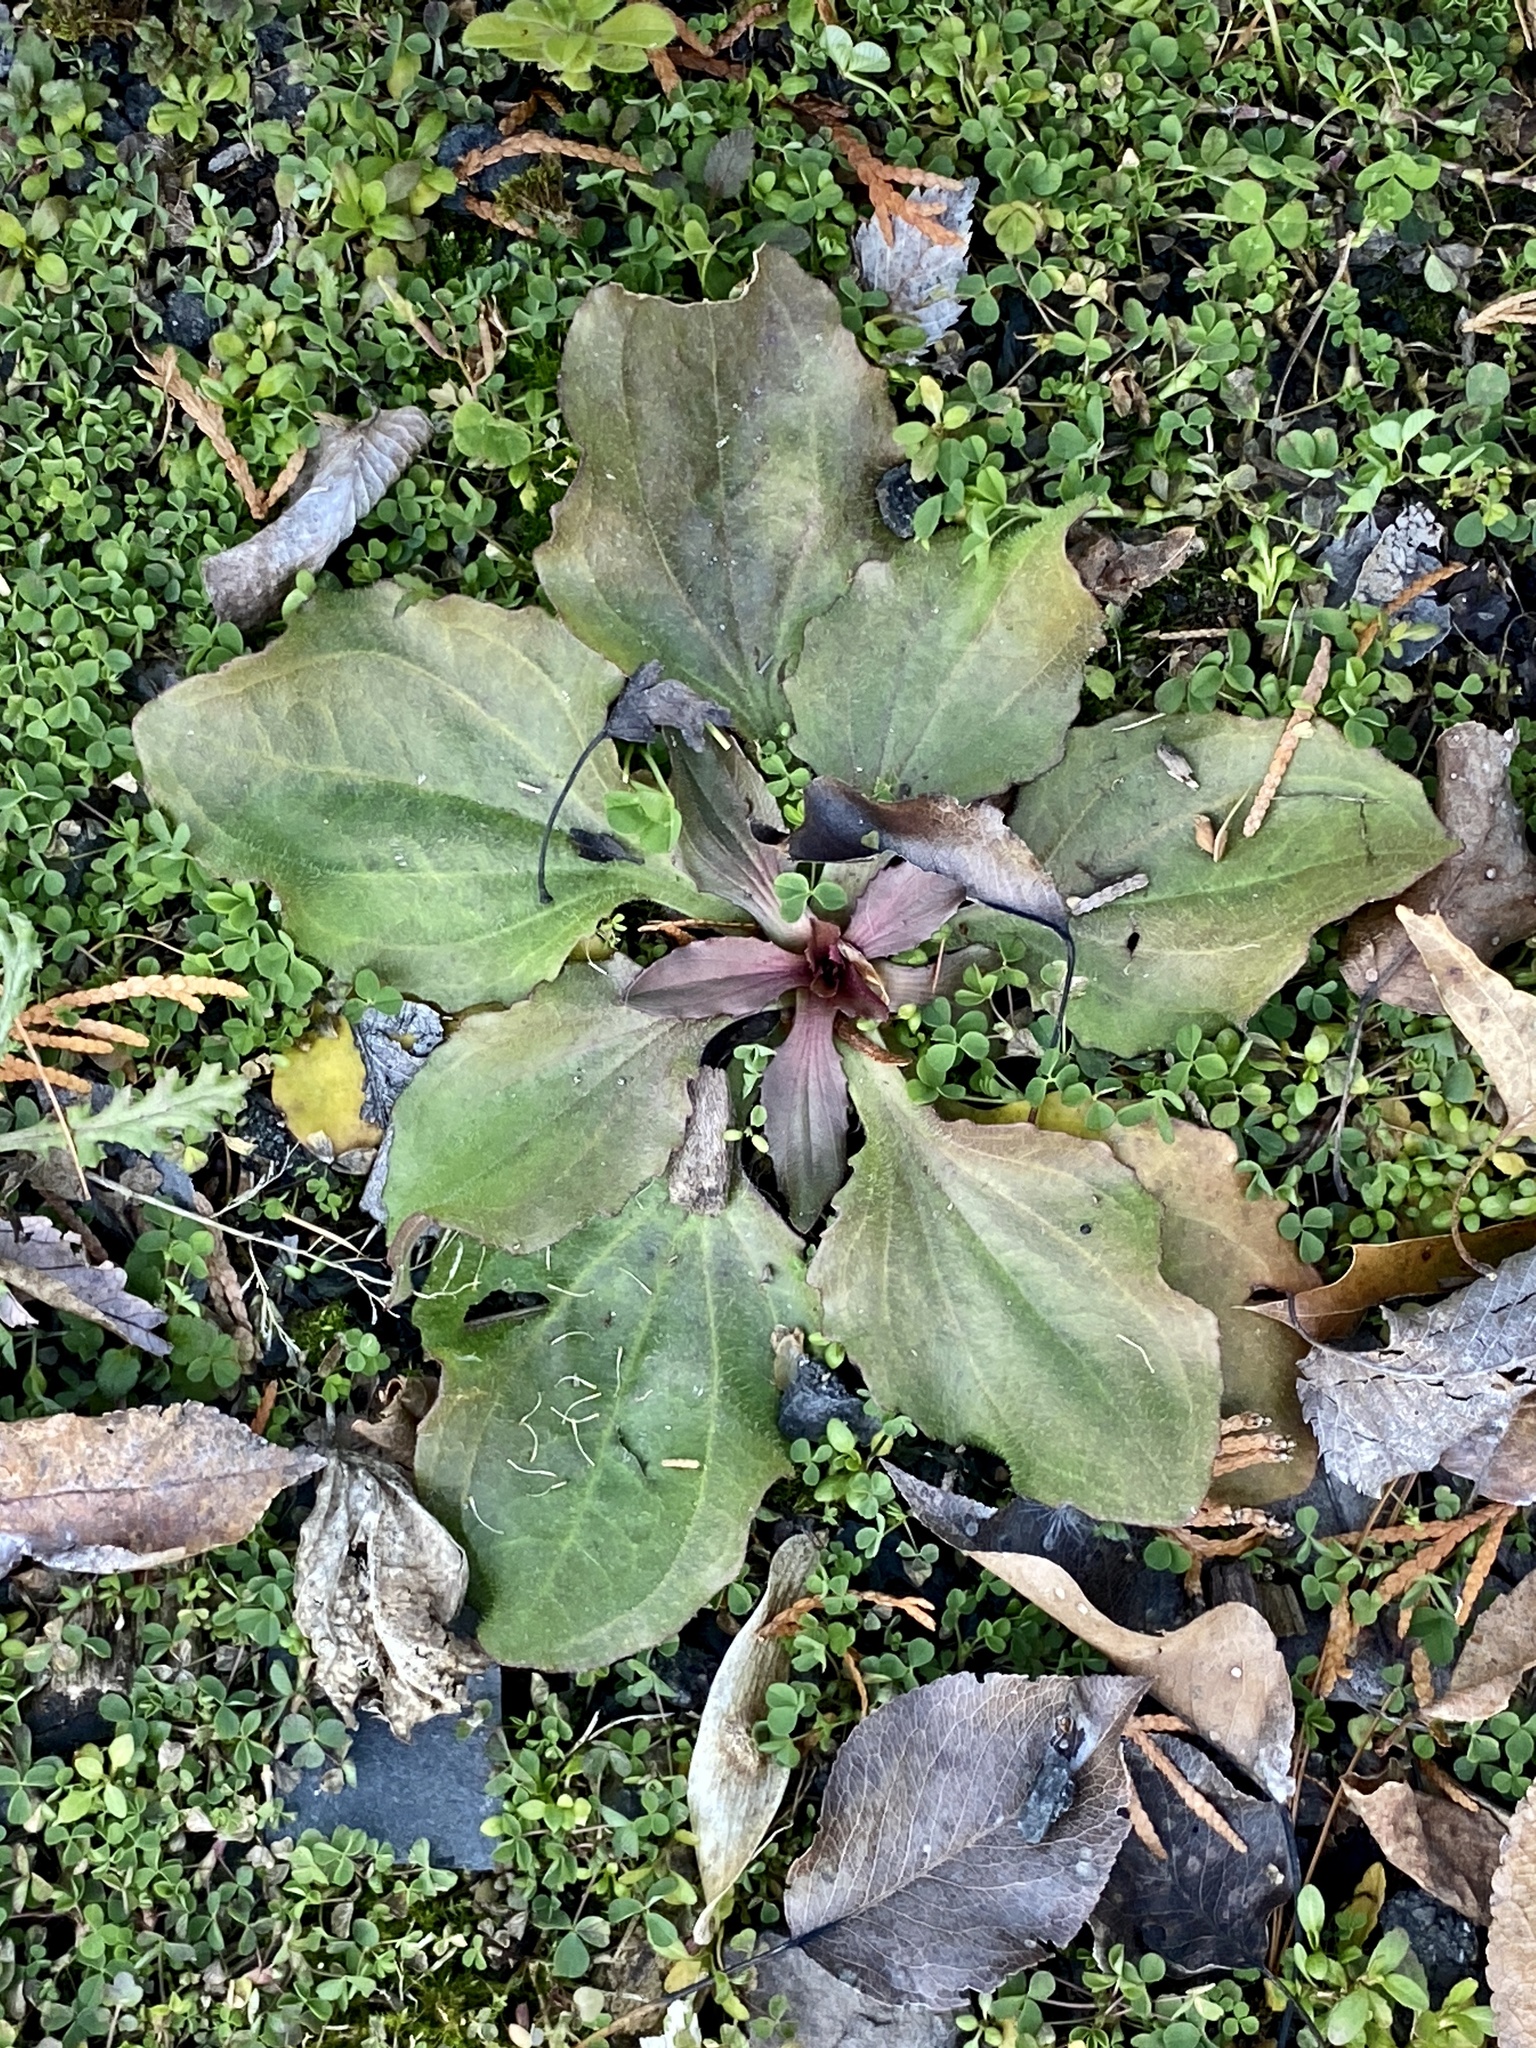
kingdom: Plantae
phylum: Tracheophyta
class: Magnoliopsida
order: Lamiales
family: Plantaginaceae
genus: Plantago
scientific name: Plantago rugelii
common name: American plantain
